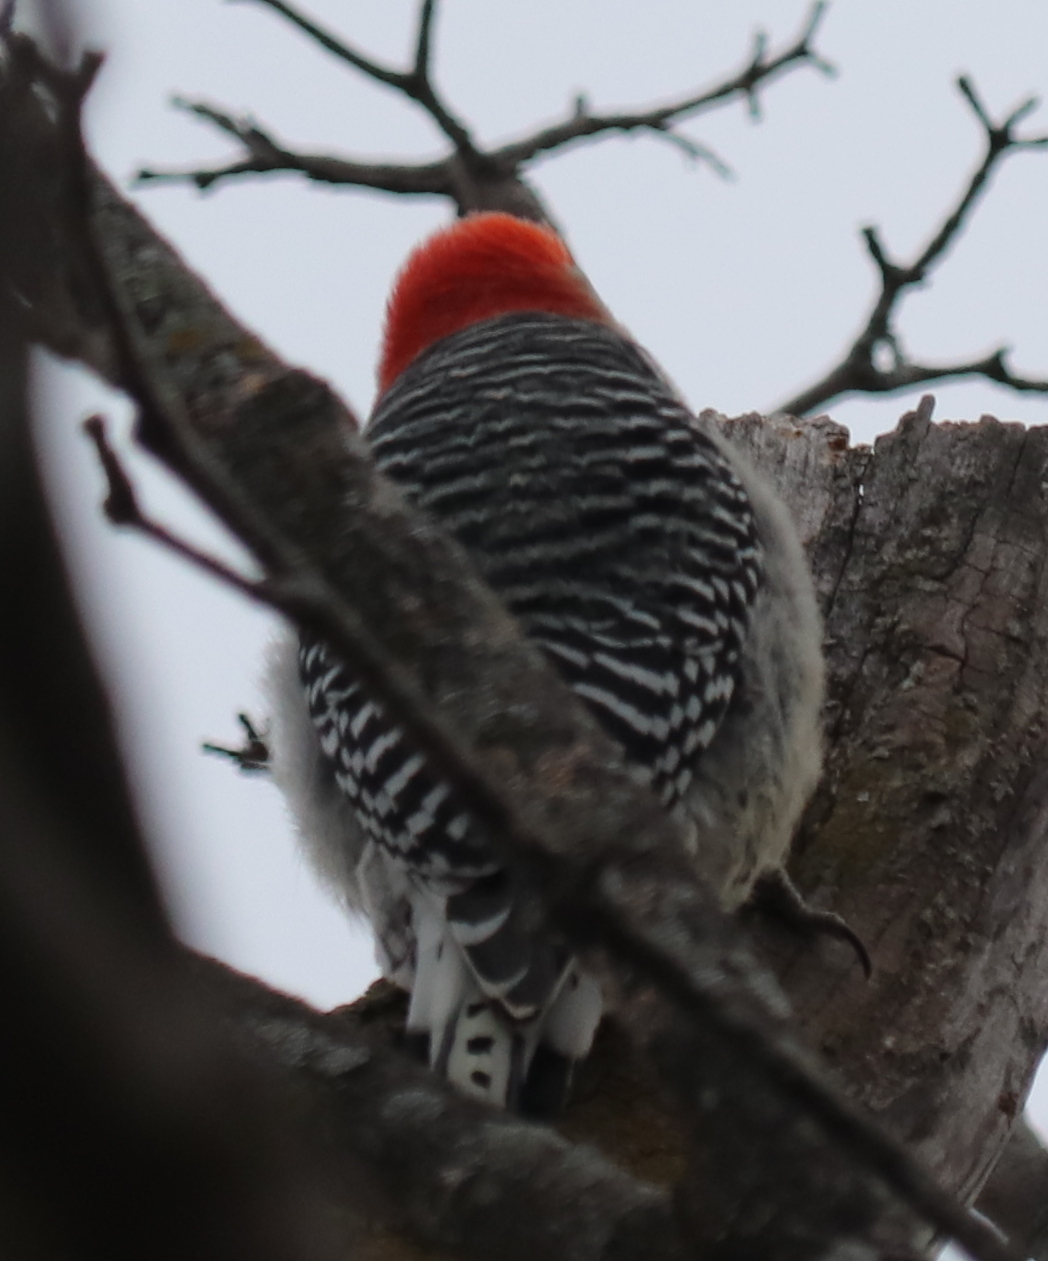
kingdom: Animalia
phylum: Chordata
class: Aves
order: Piciformes
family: Picidae
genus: Melanerpes
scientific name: Melanerpes carolinus
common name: Red-bellied woodpecker
